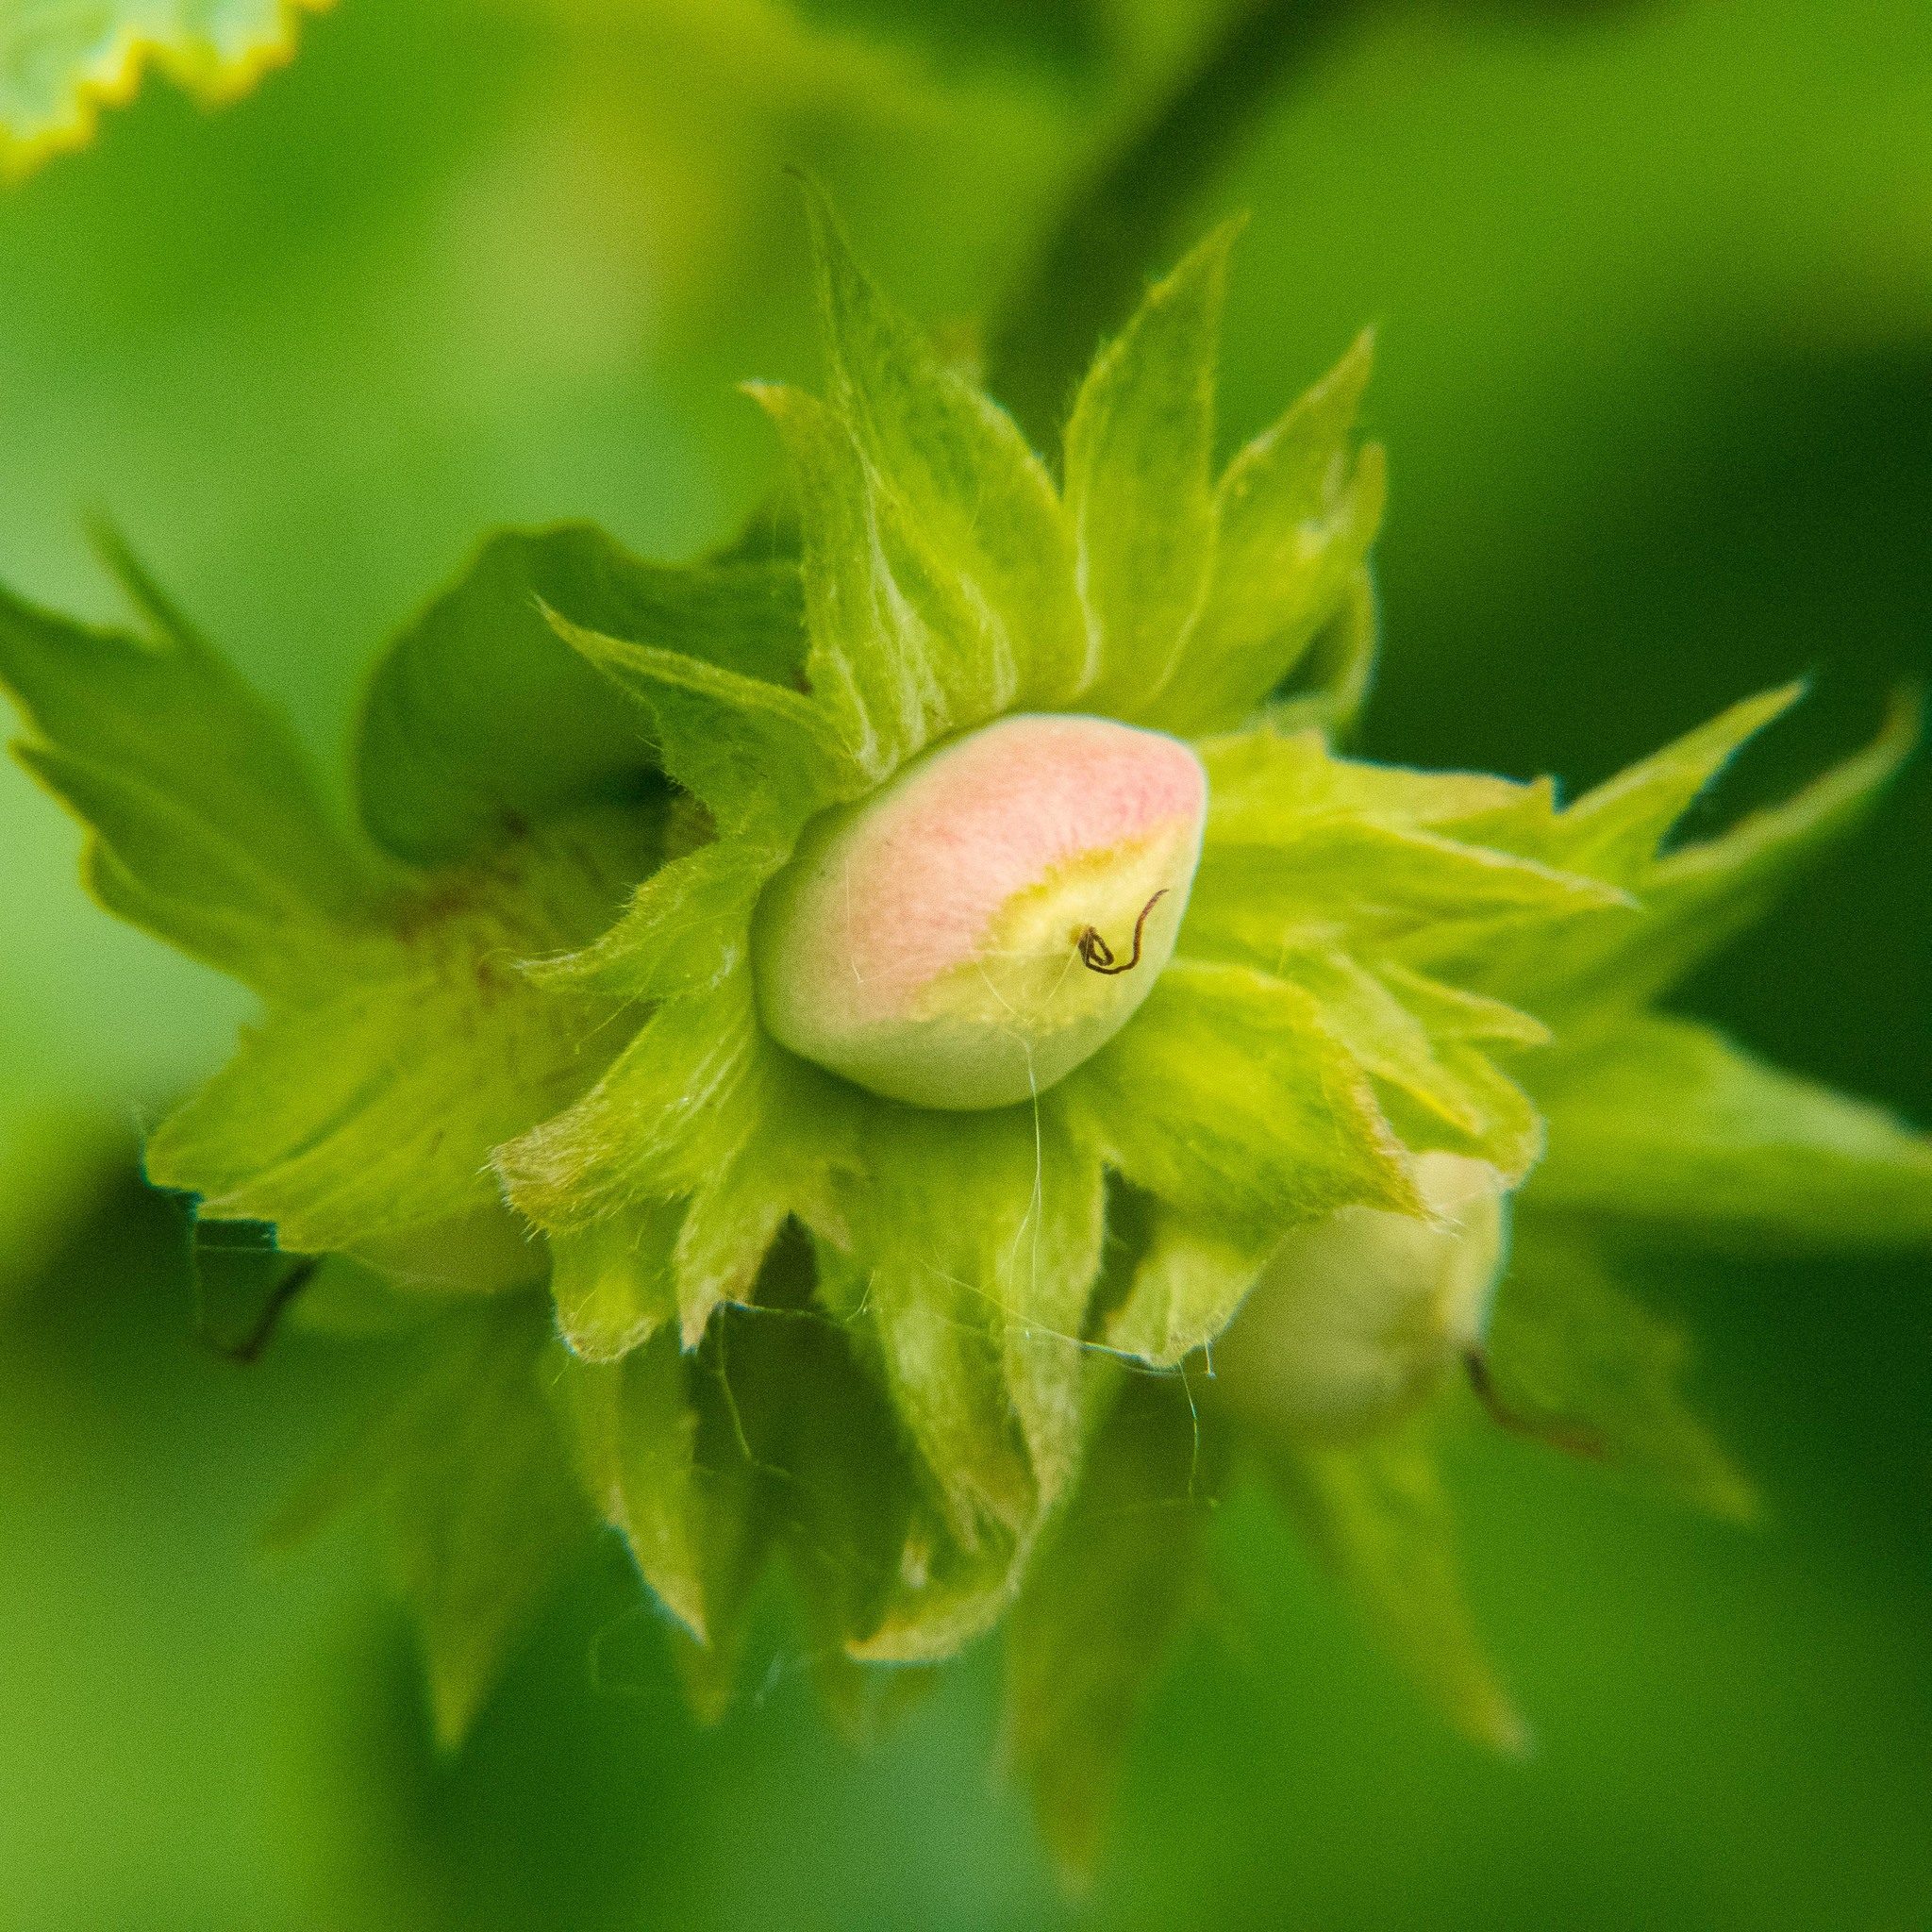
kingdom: Plantae
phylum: Tracheophyta
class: Magnoliopsida
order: Fagales
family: Betulaceae
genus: Corylus
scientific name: Corylus avellana
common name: European hazel
